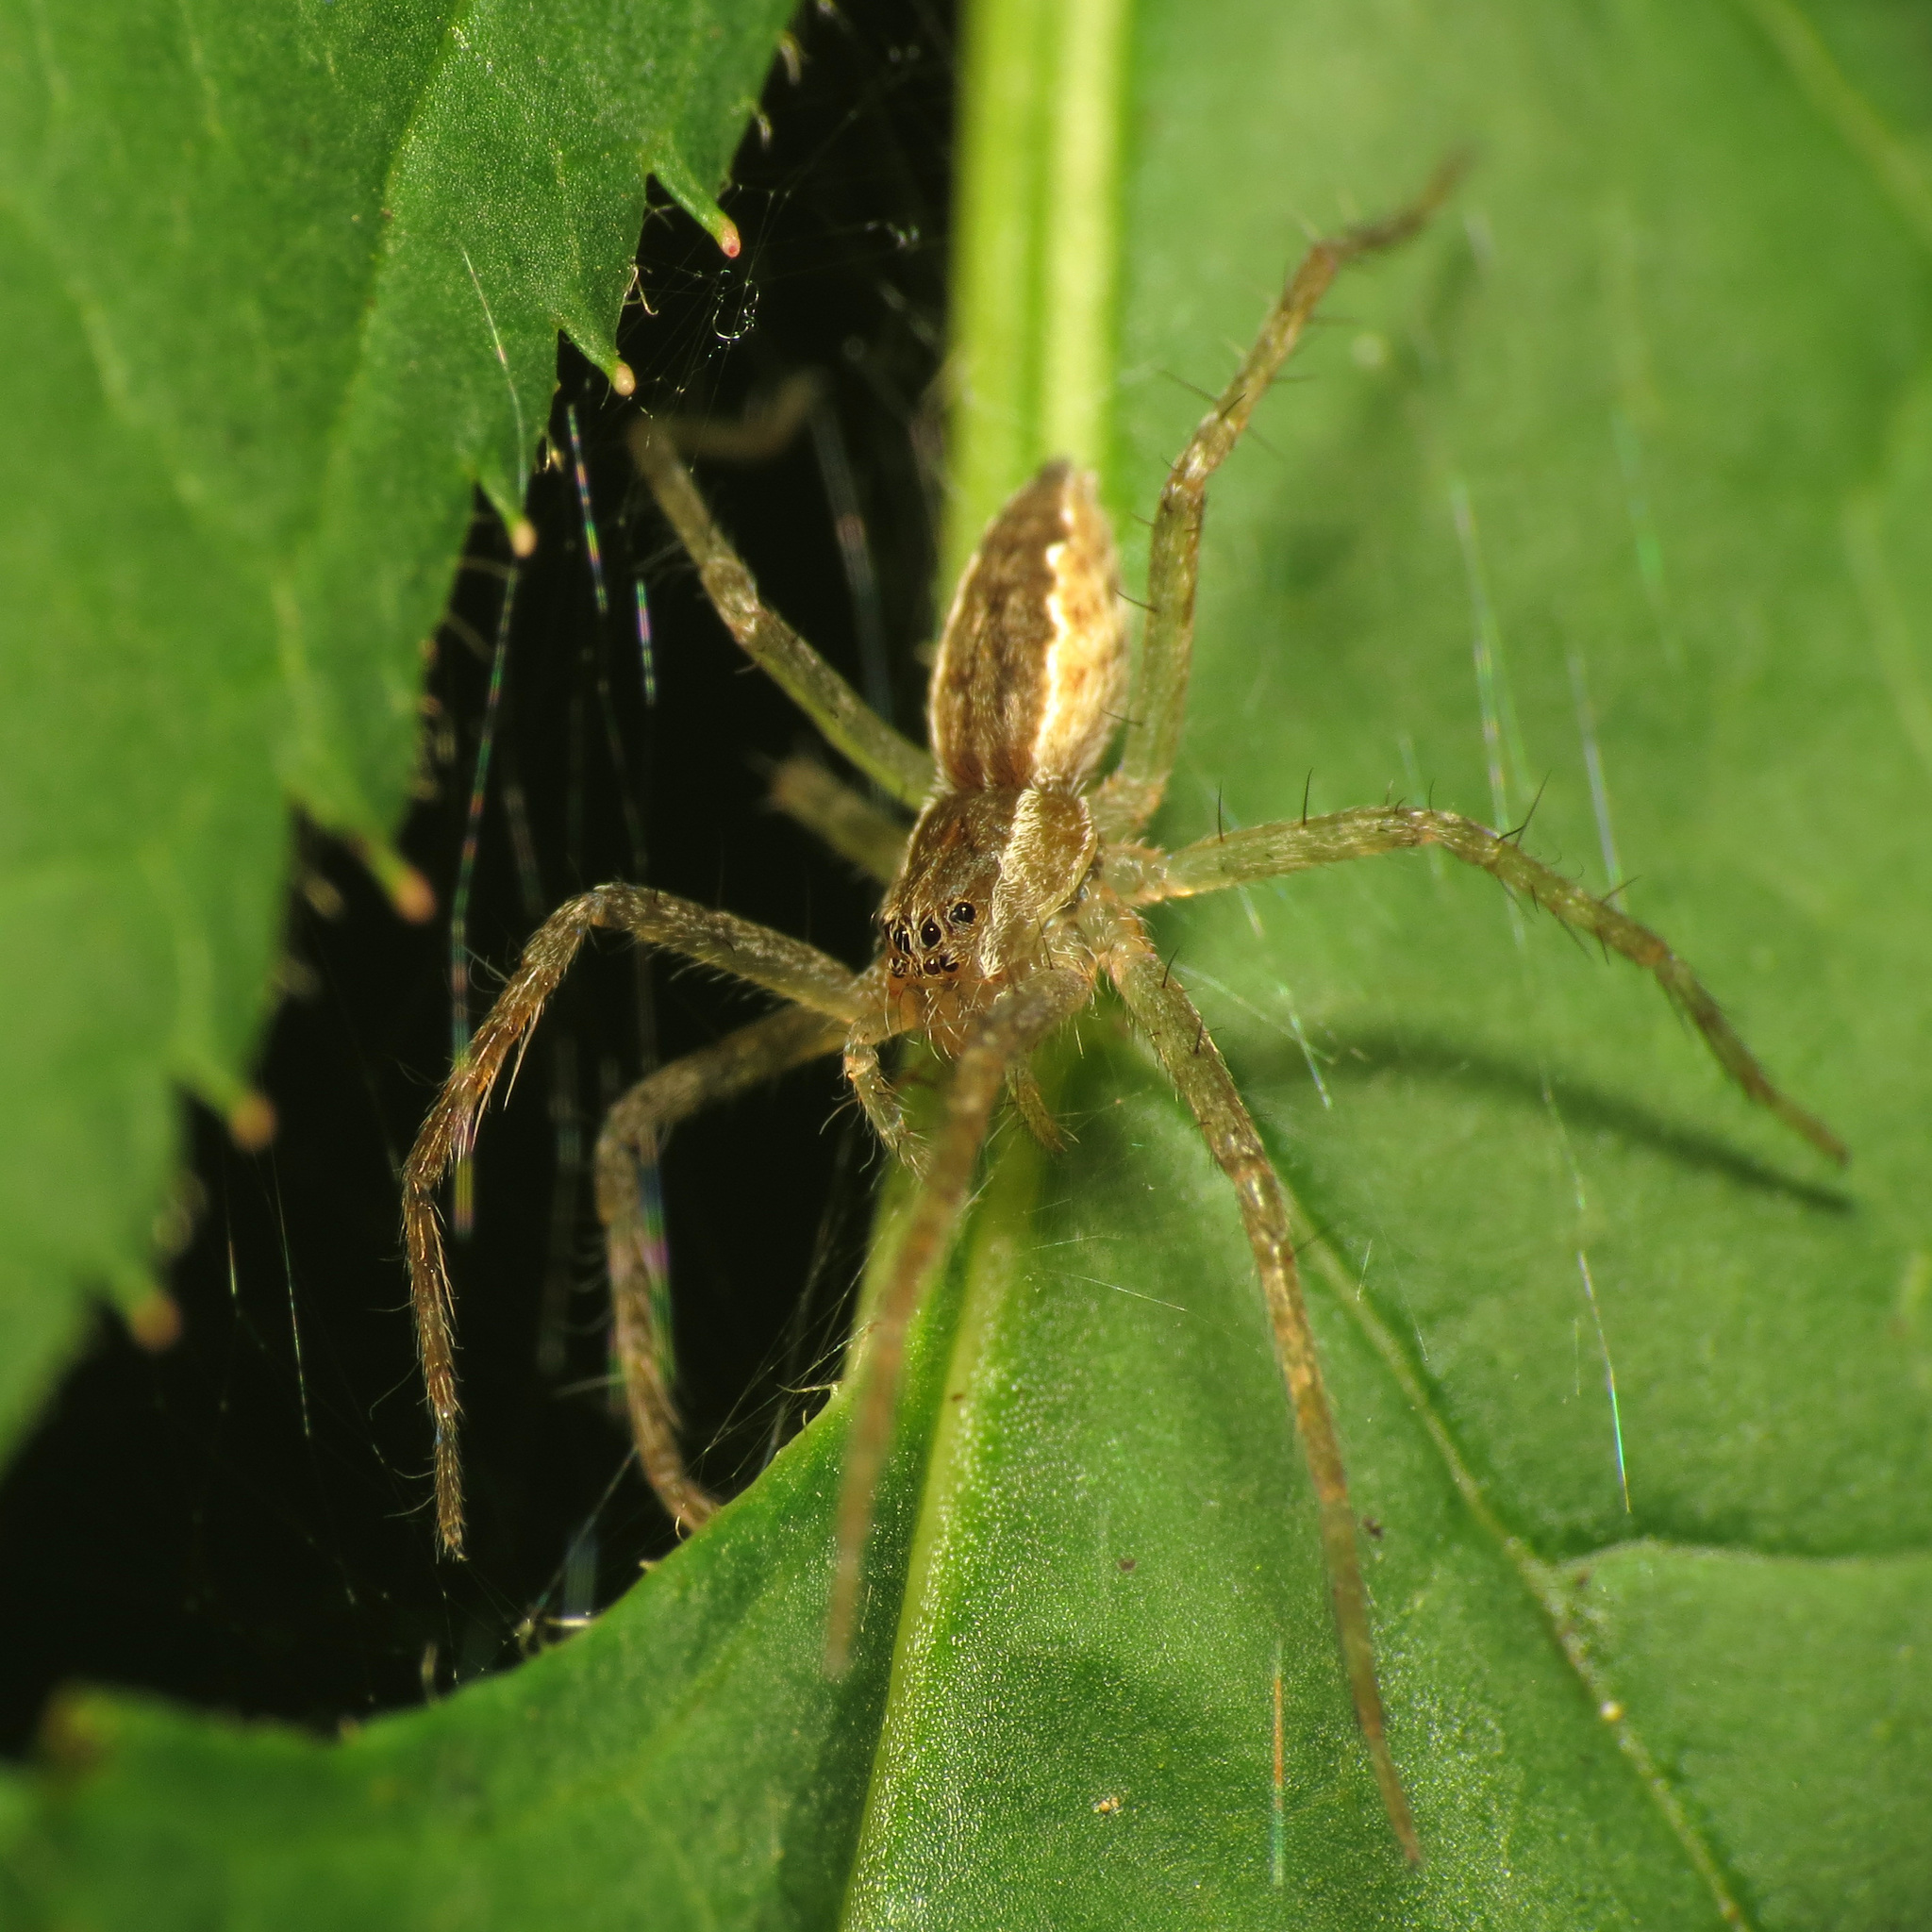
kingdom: Animalia
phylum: Arthropoda
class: Arachnida
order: Araneae
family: Pisauridae
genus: Pisaurina
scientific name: Pisaurina mira
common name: American nursery web spider
